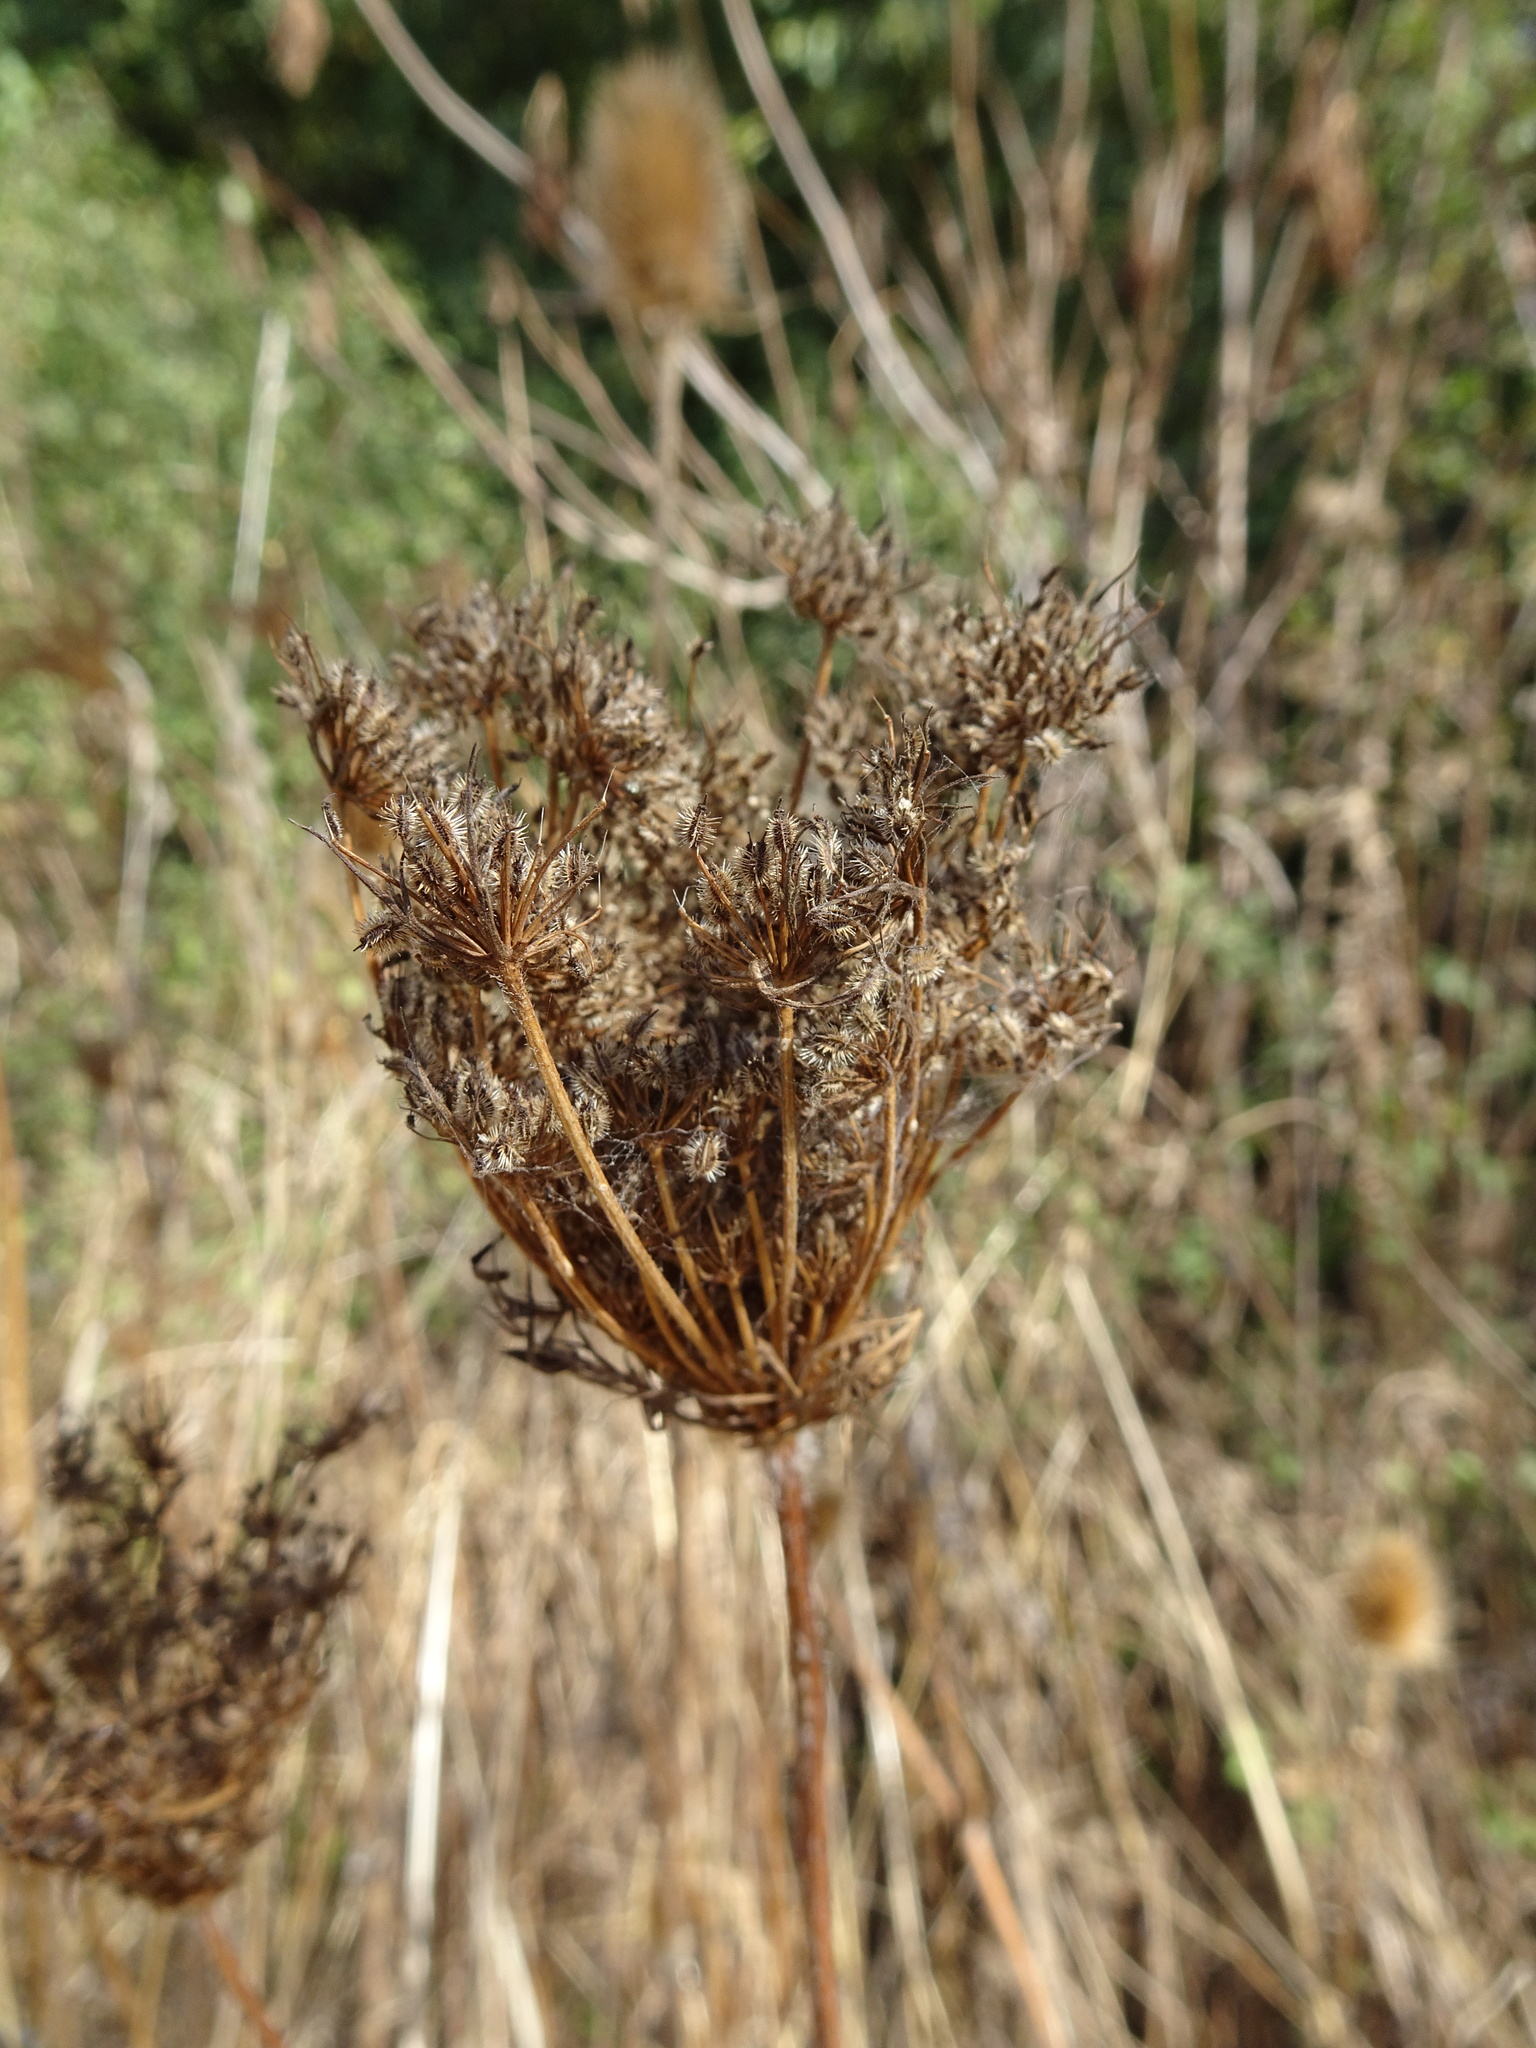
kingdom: Plantae
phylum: Tracheophyta
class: Magnoliopsida
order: Apiales
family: Apiaceae
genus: Daucus
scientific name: Daucus carota
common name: Wild carrot
